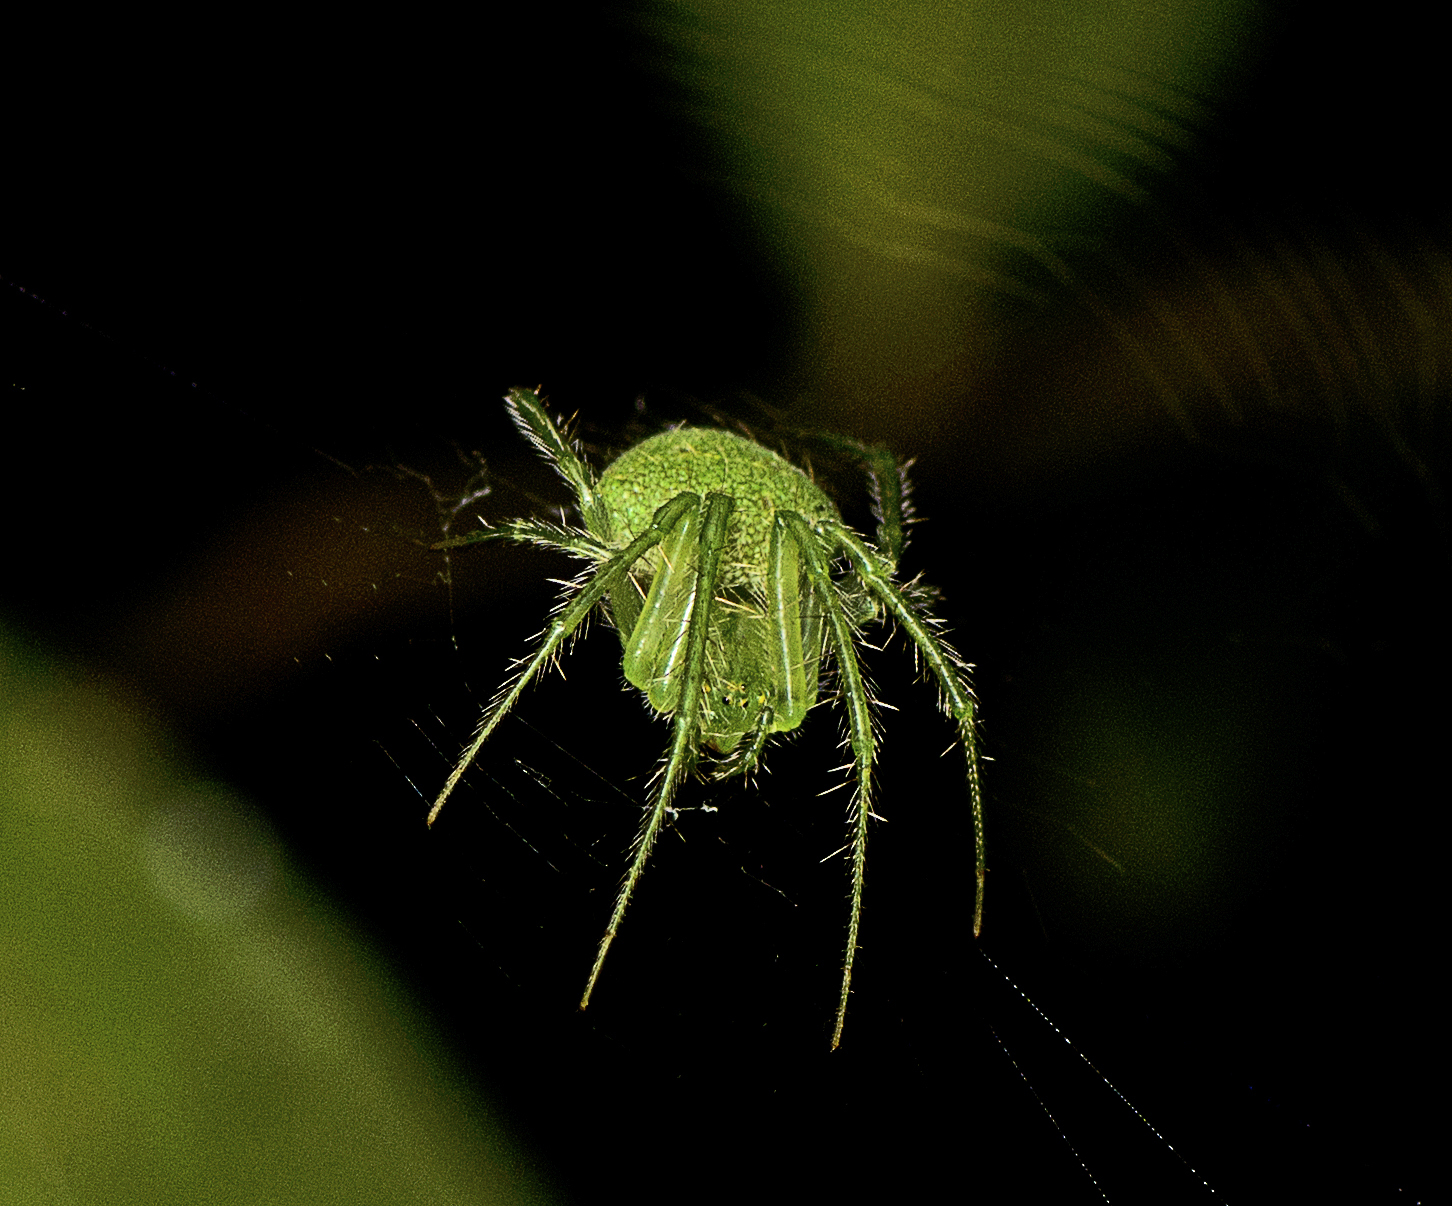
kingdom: Animalia
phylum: Arthropoda
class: Arachnida
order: Araneae
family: Araneidae
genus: Araneus
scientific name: Araneus circulissparsus
